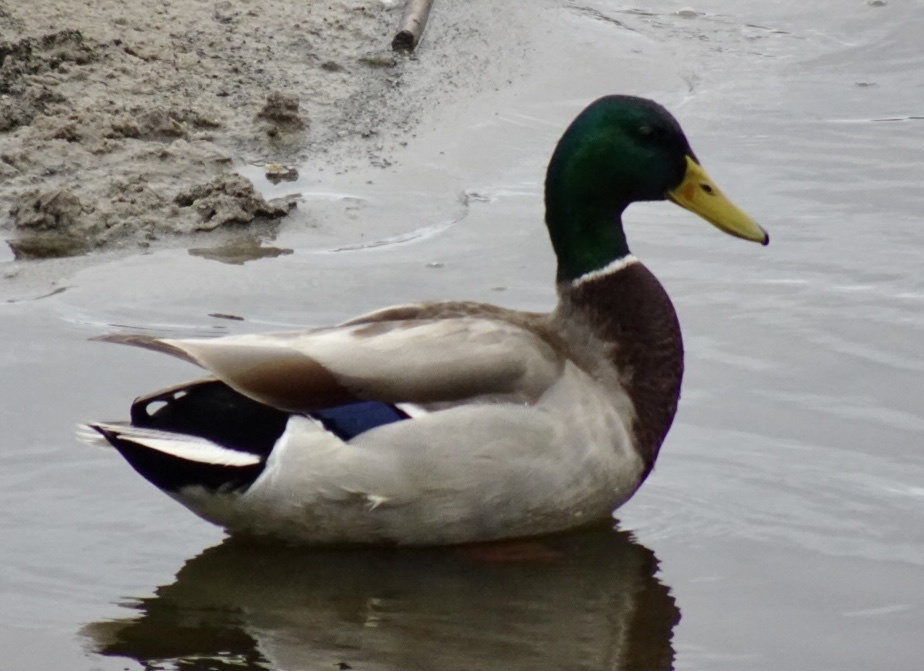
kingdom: Animalia
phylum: Chordata
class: Aves
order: Anseriformes
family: Anatidae
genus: Anas
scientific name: Anas platyrhynchos
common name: Mallard
